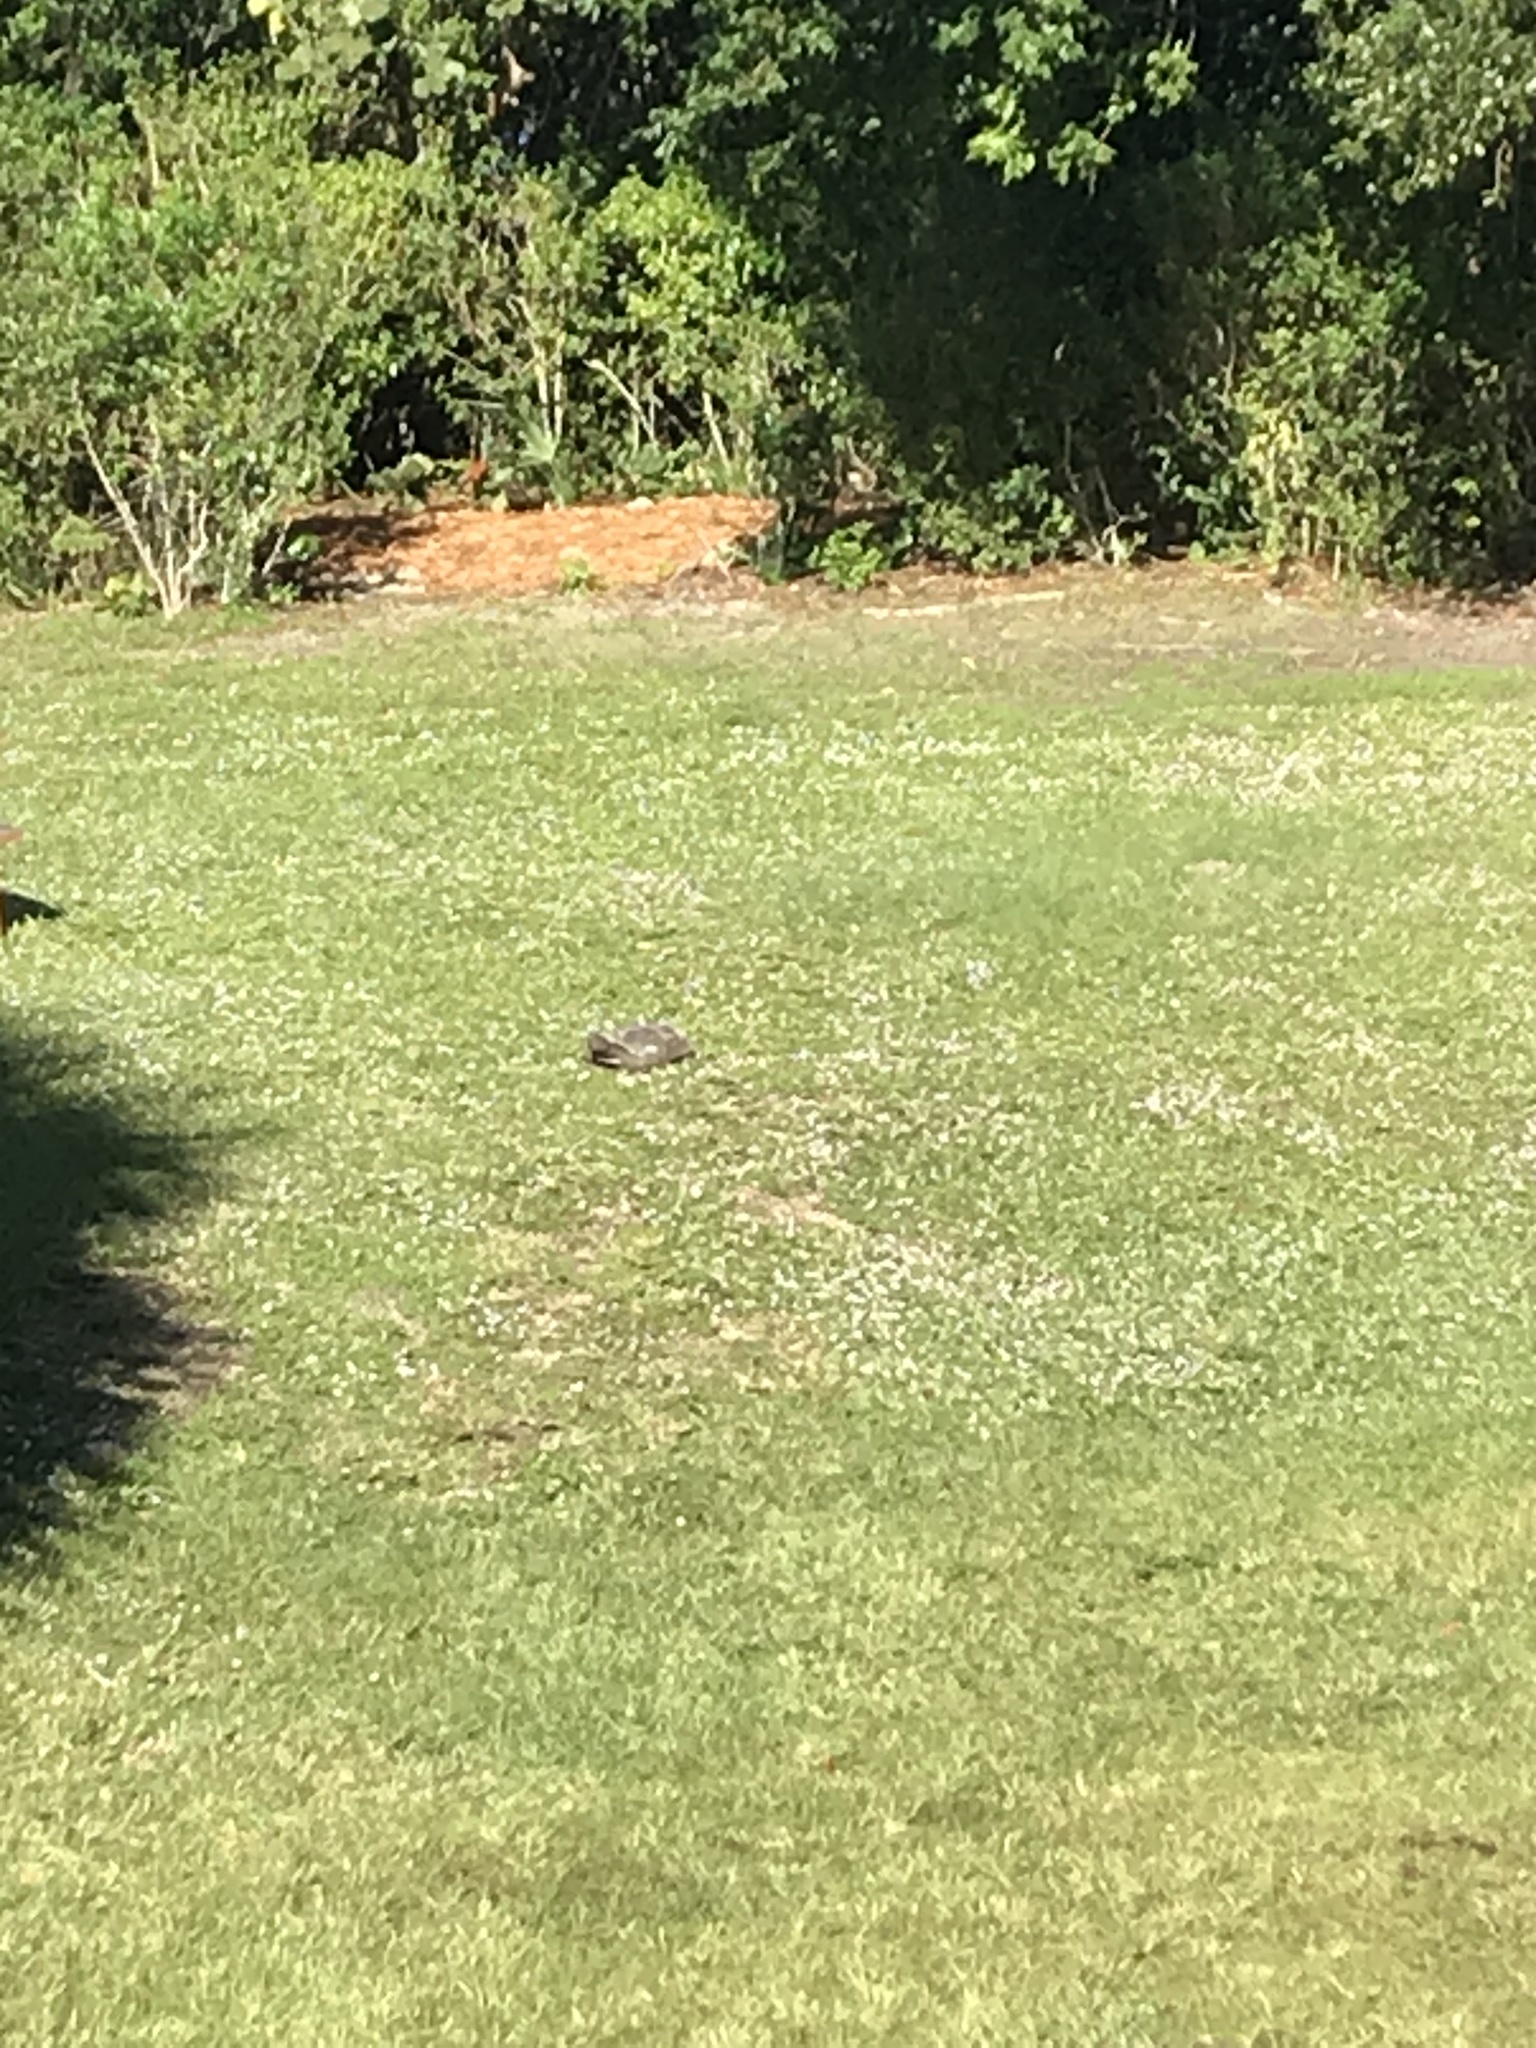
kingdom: Animalia
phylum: Chordata
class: Testudines
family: Testudinidae
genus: Gopherus
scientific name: Gopherus polyphemus
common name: Florida gopher tortoise
